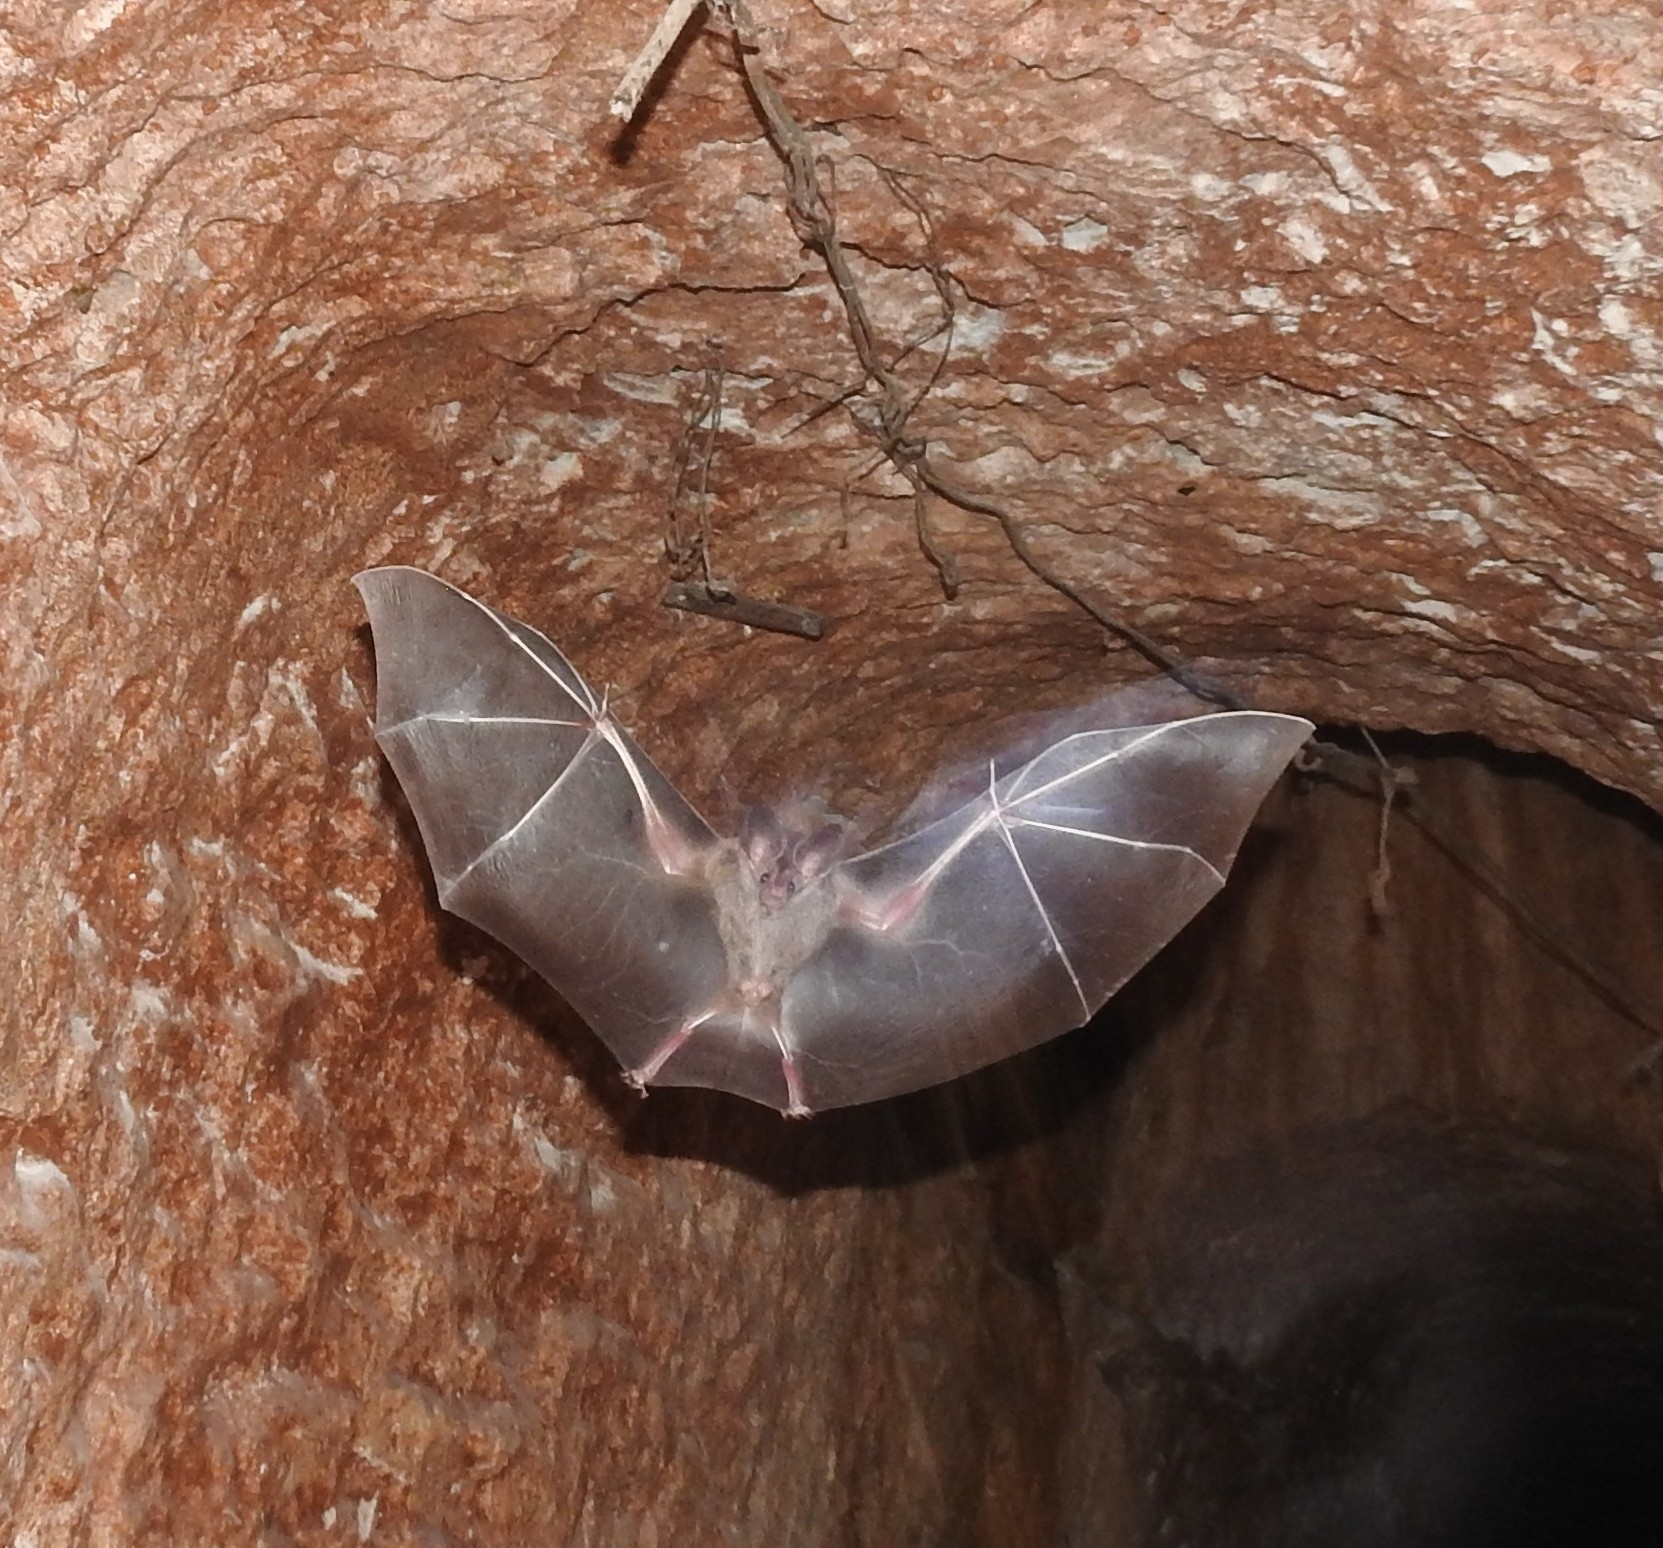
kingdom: Animalia
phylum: Chordata
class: Mammalia
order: Chiroptera
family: Phyllostomidae
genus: Chrotopterus
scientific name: Chrotopterus auritus
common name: Woolly false vampire bat
